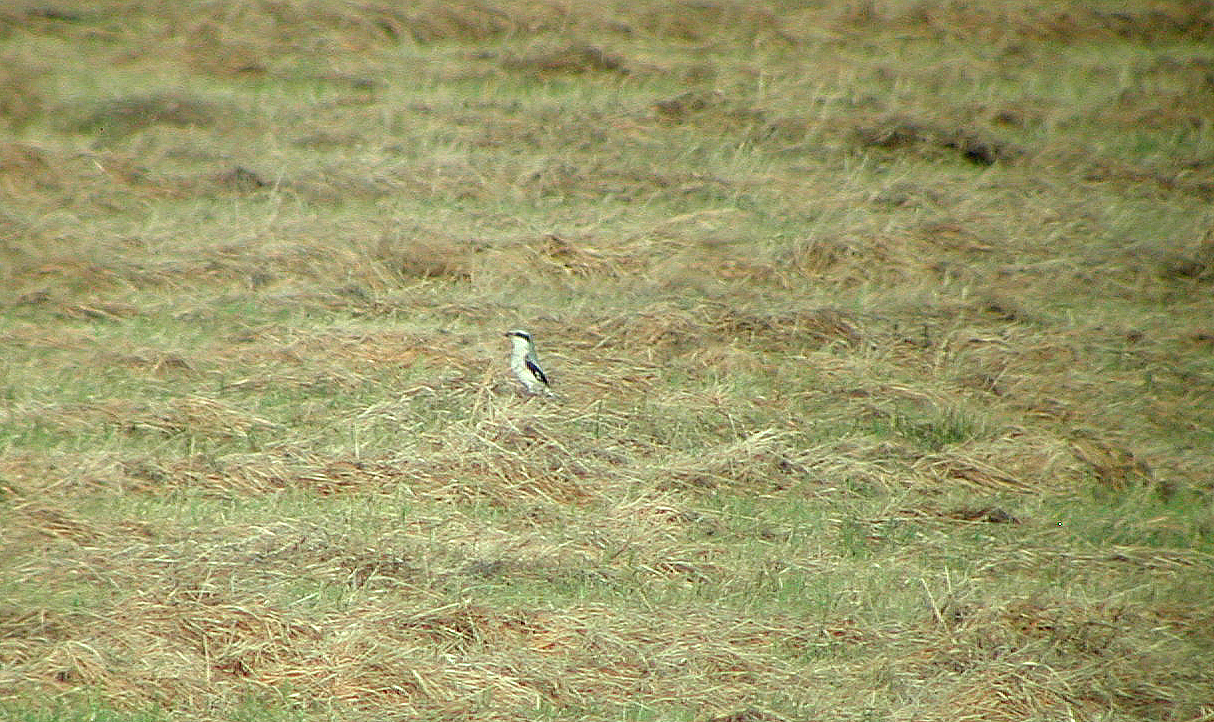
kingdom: Animalia
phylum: Chordata
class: Aves
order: Passeriformes
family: Laniidae
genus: Lanius
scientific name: Lanius excubitor
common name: Great grey shrike
